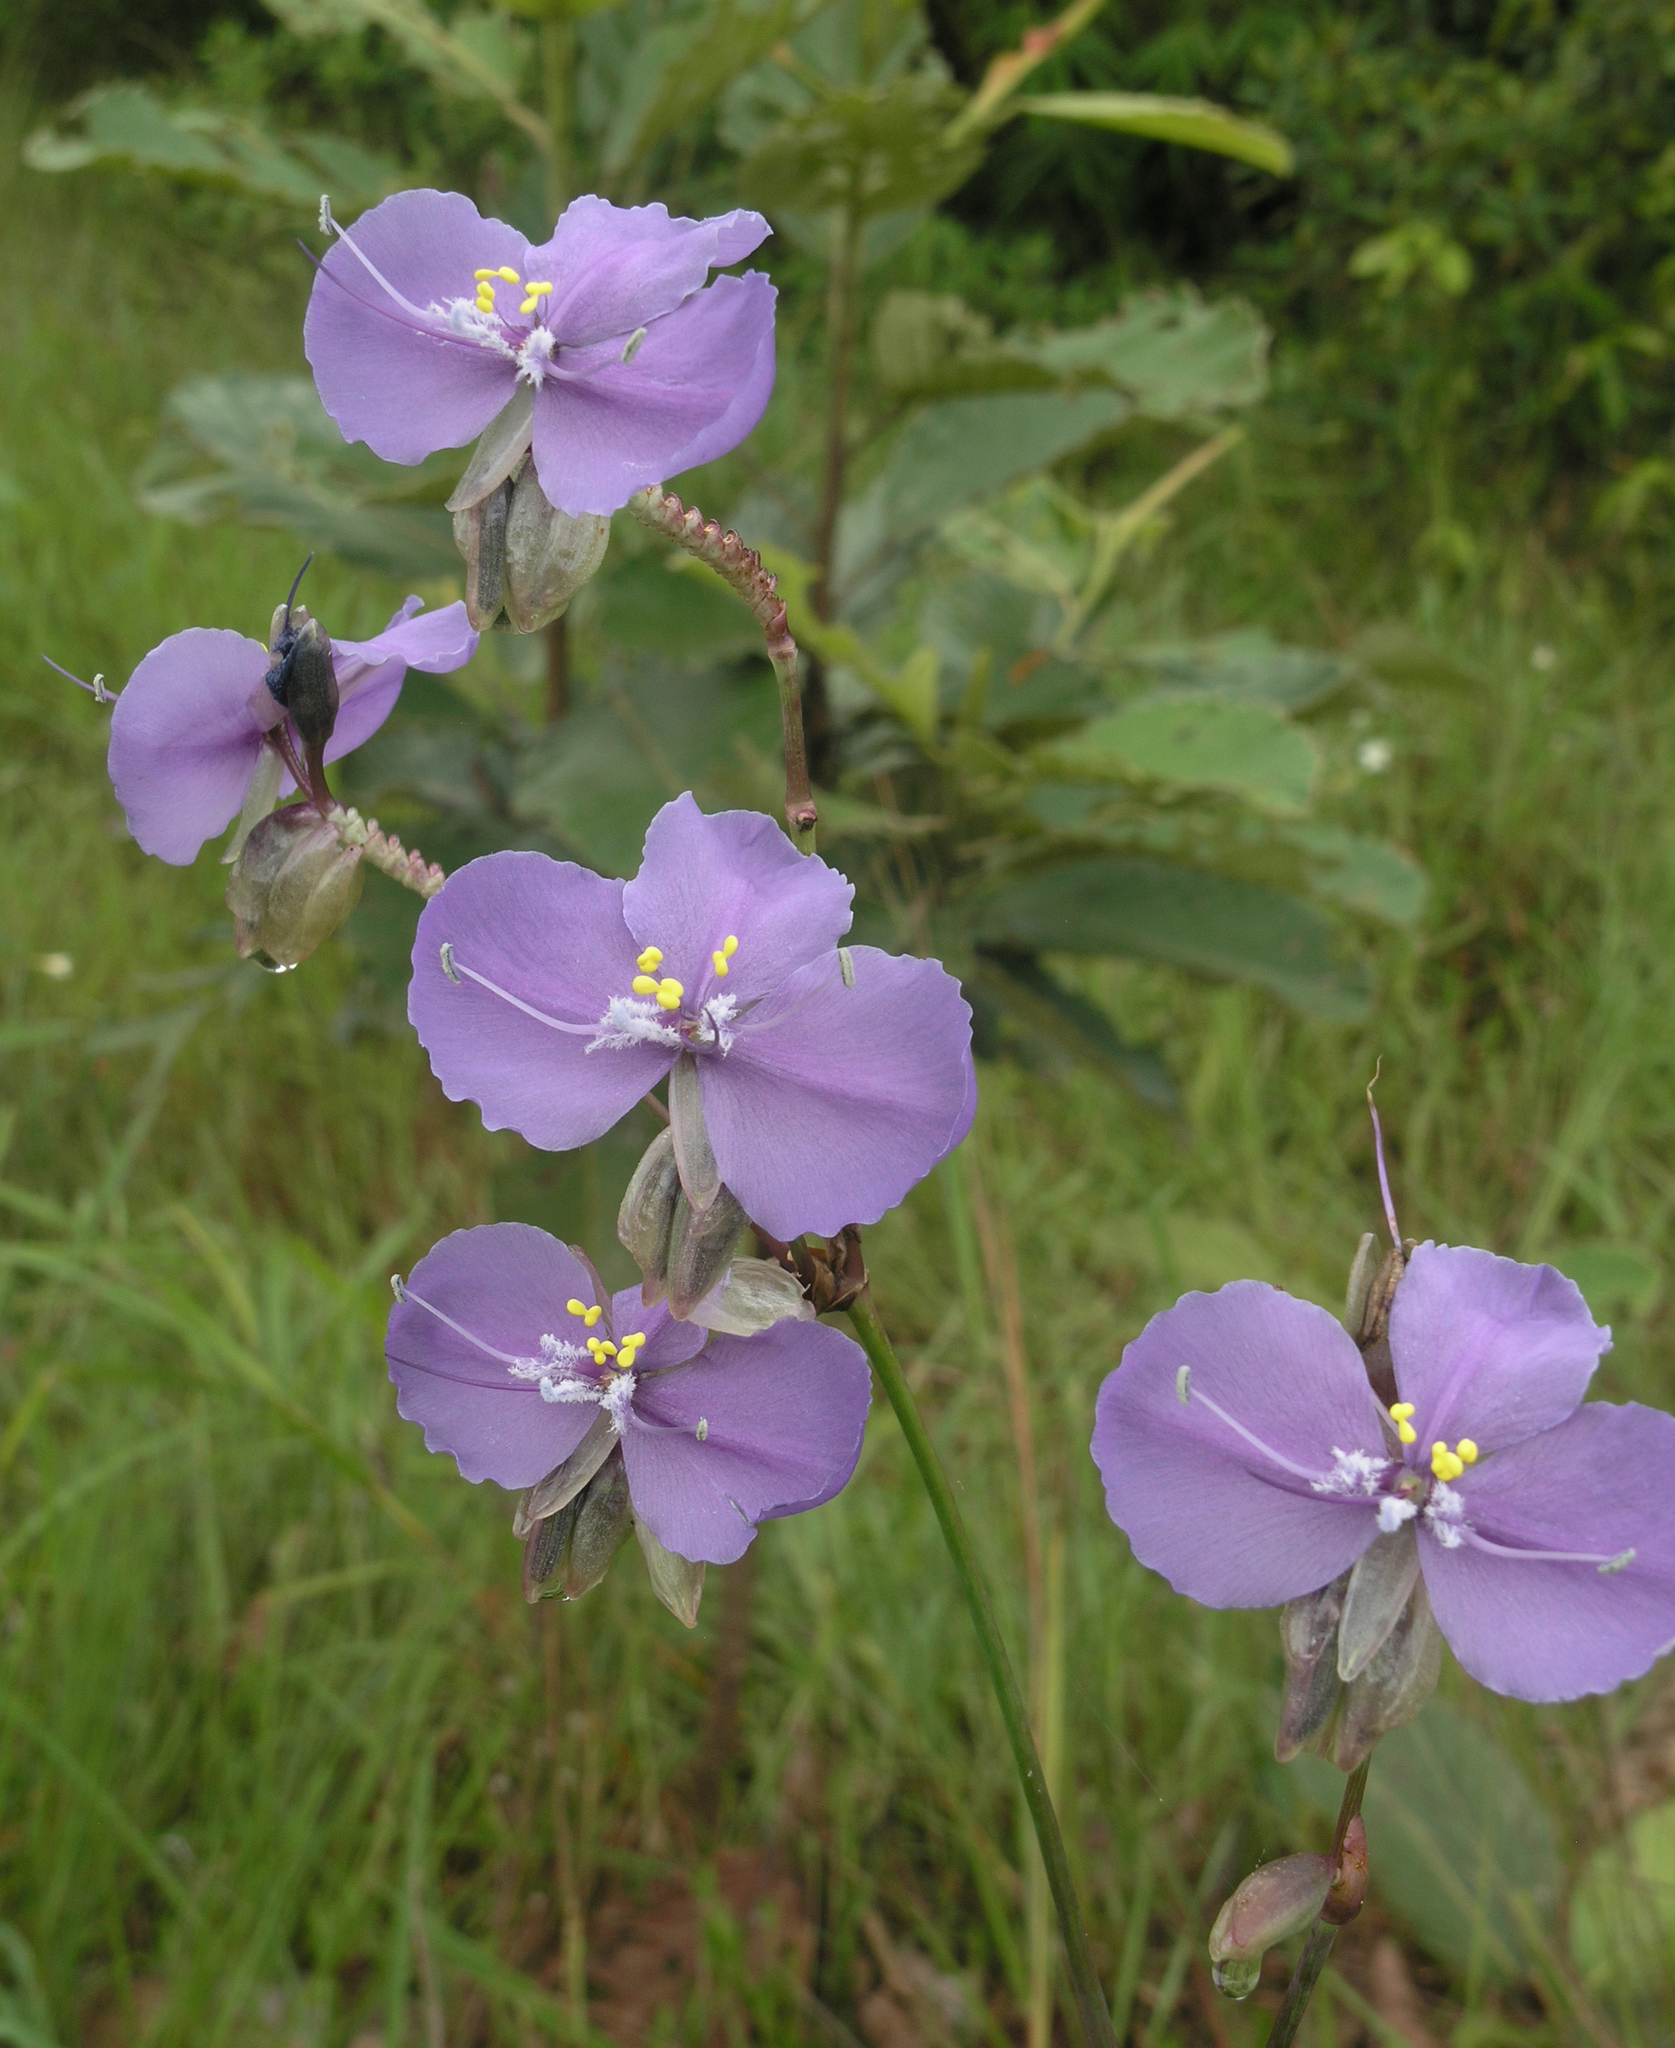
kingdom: Plantae
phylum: Tracheophyta
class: Liliopsida
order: Commelinales
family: Commelinaceae
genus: Murdannia
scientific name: Murdannia macrocarpa
